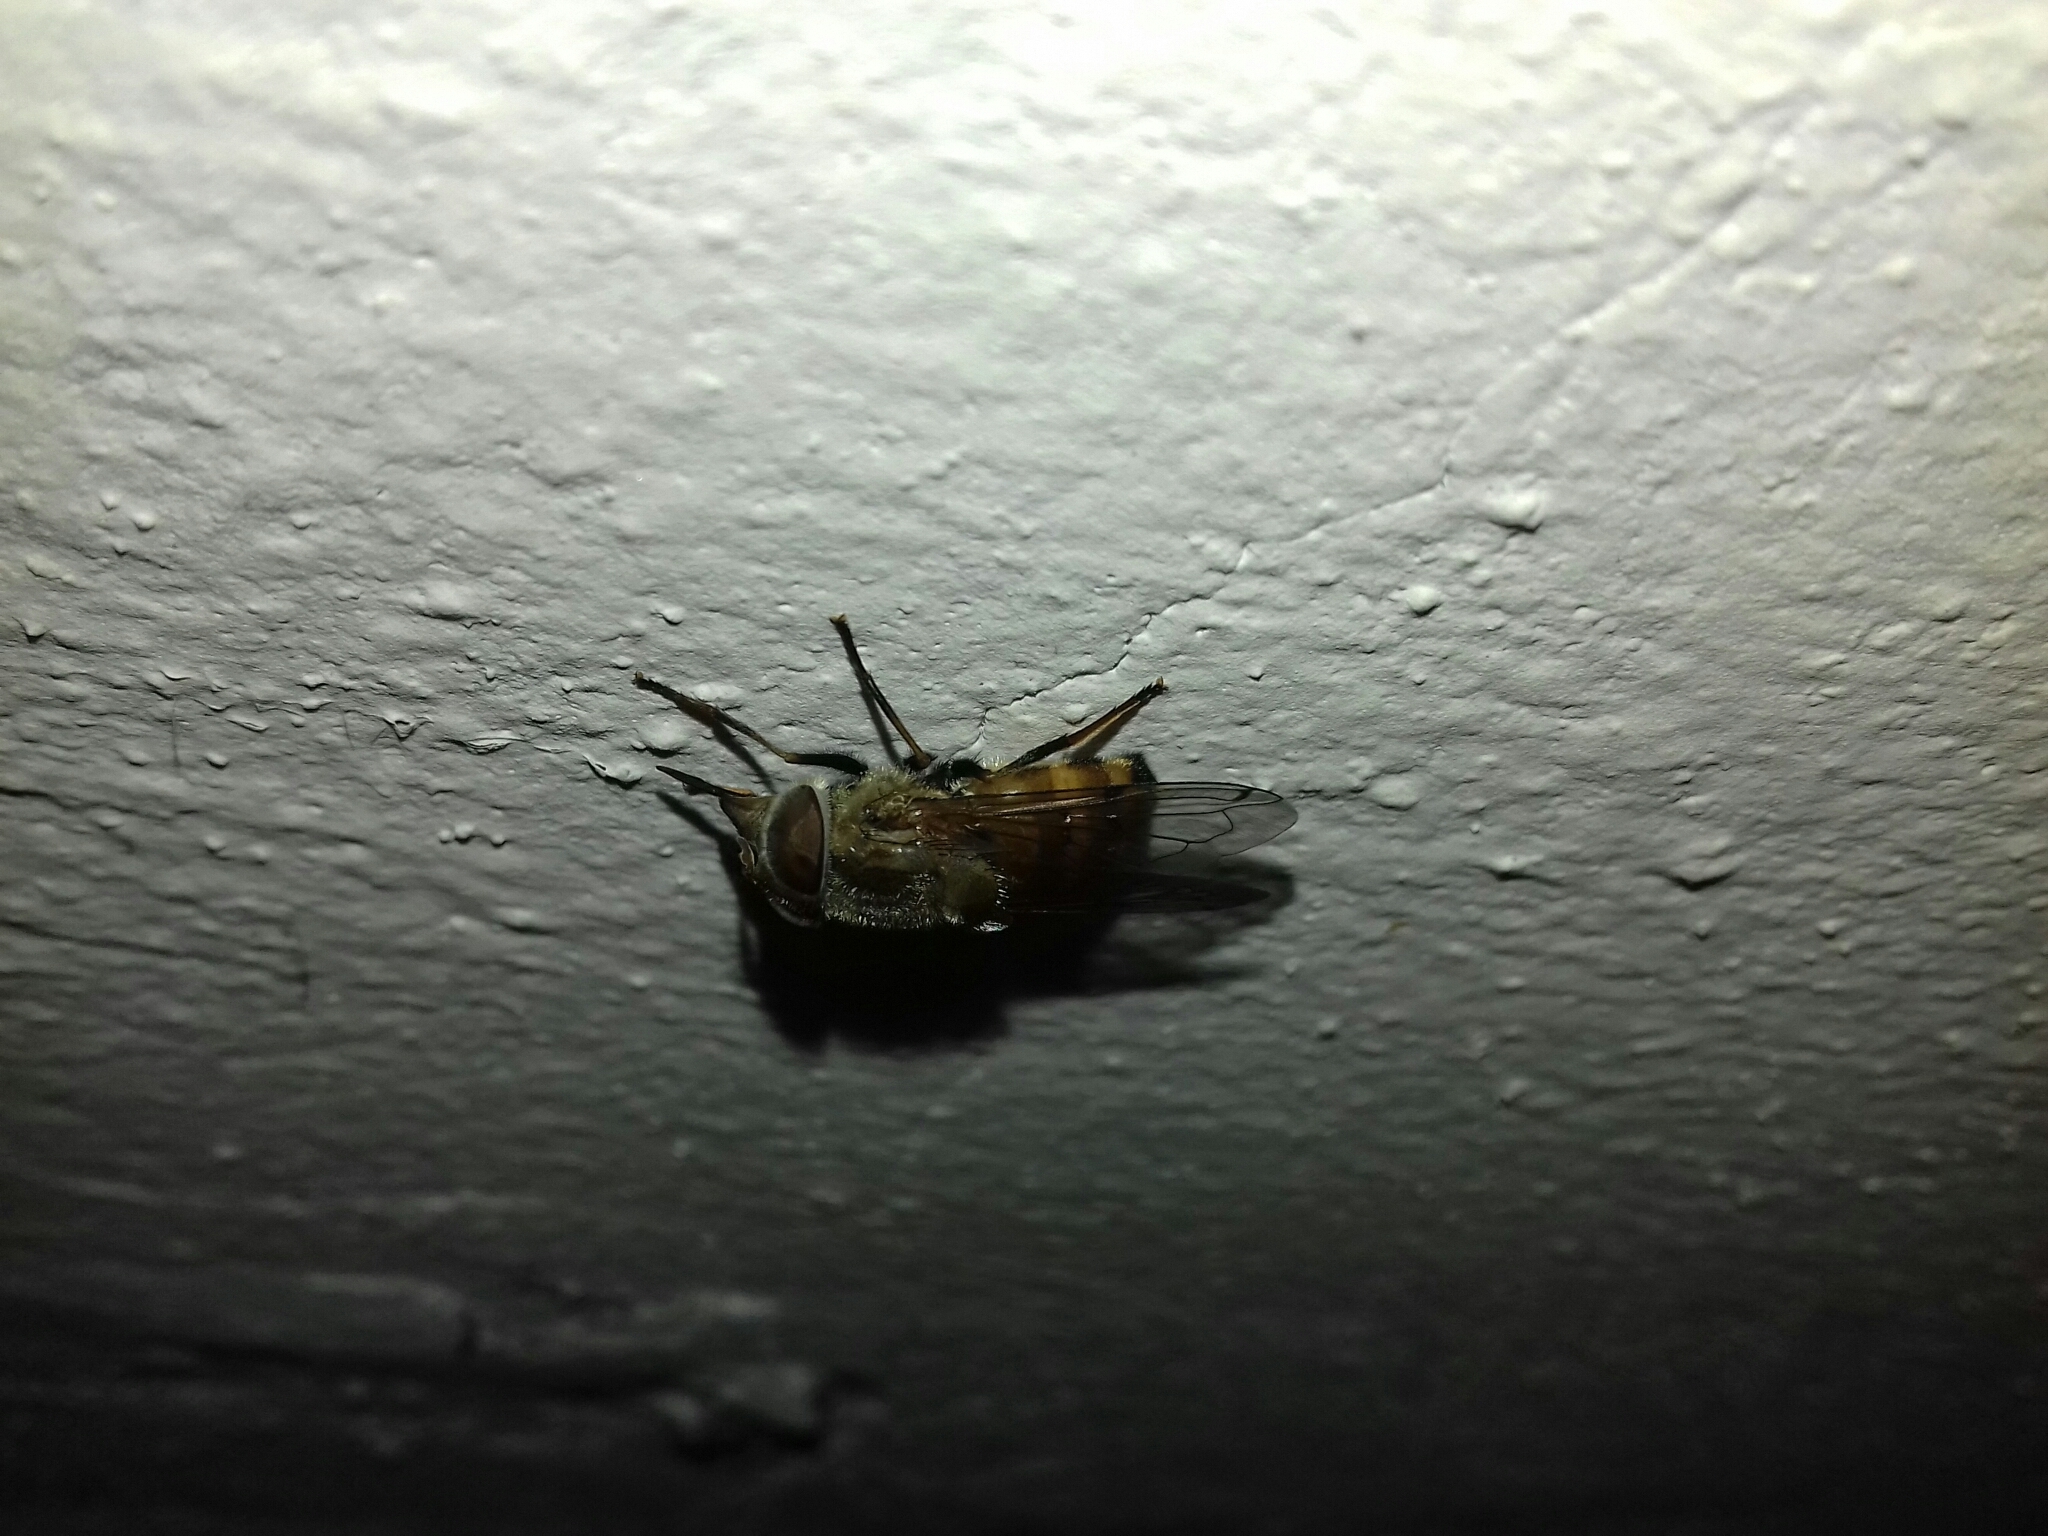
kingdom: Animalia
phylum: Arthropoda
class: Insecta
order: Diptera
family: Syrphidae
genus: Copestylum
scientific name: Copestylum haagii
